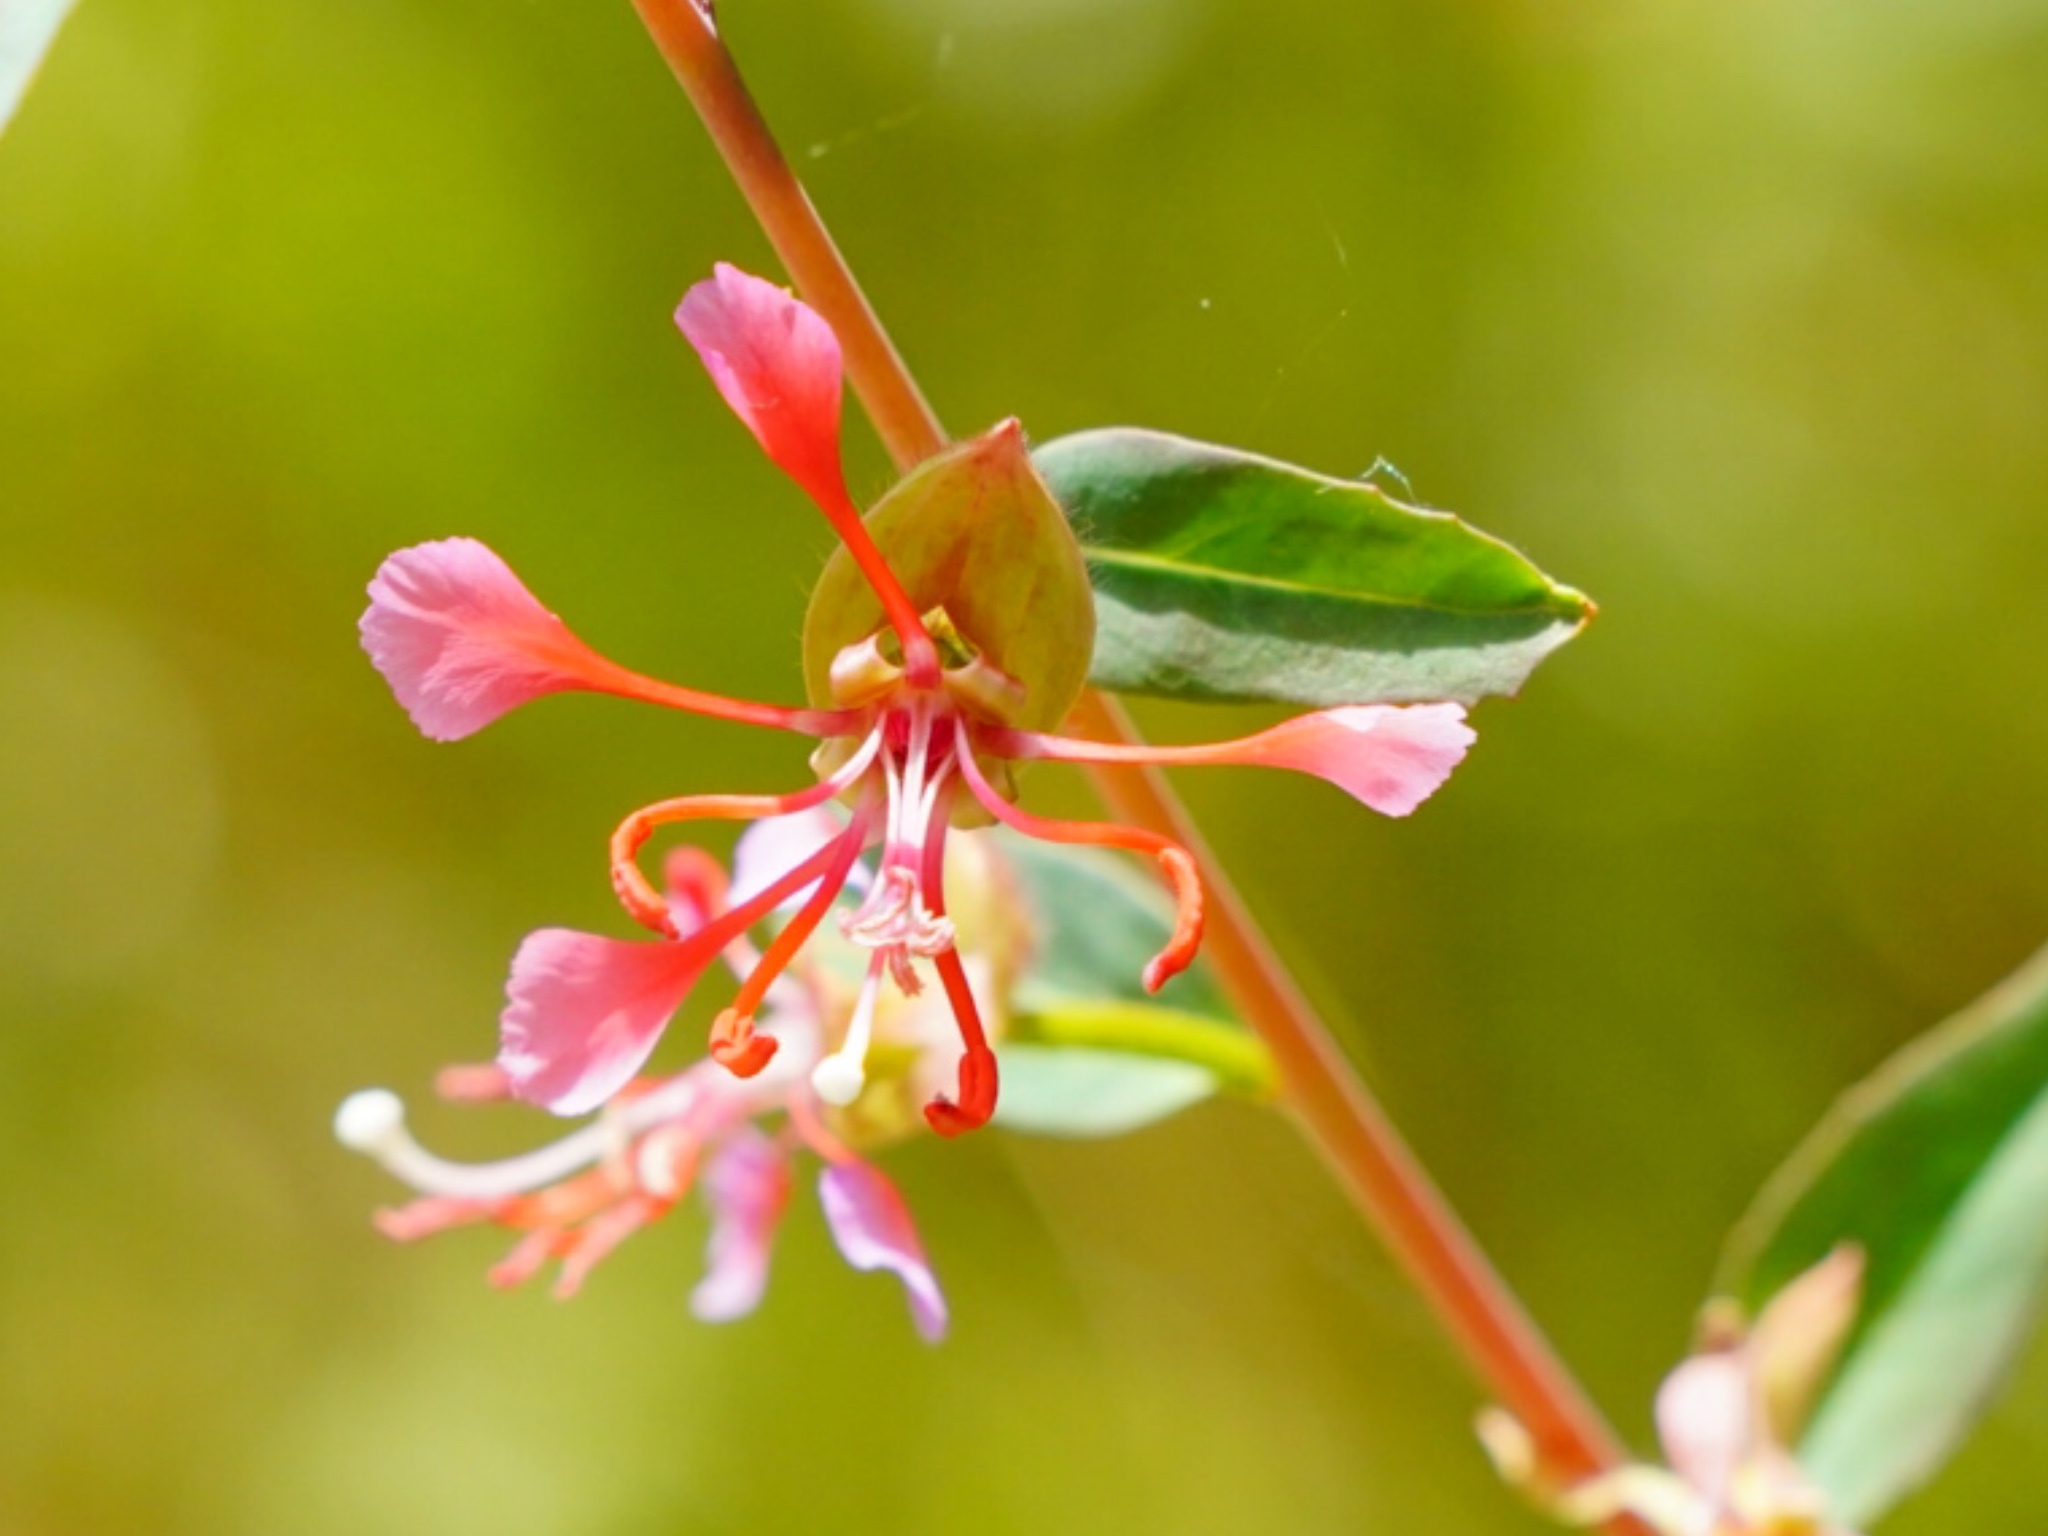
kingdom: Plantae
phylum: Tracheophyta
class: Magnoliopsida
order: Myrtales
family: Onagraceae
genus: Clarkia
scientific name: Clarkia unguiculata
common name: Clarkia
